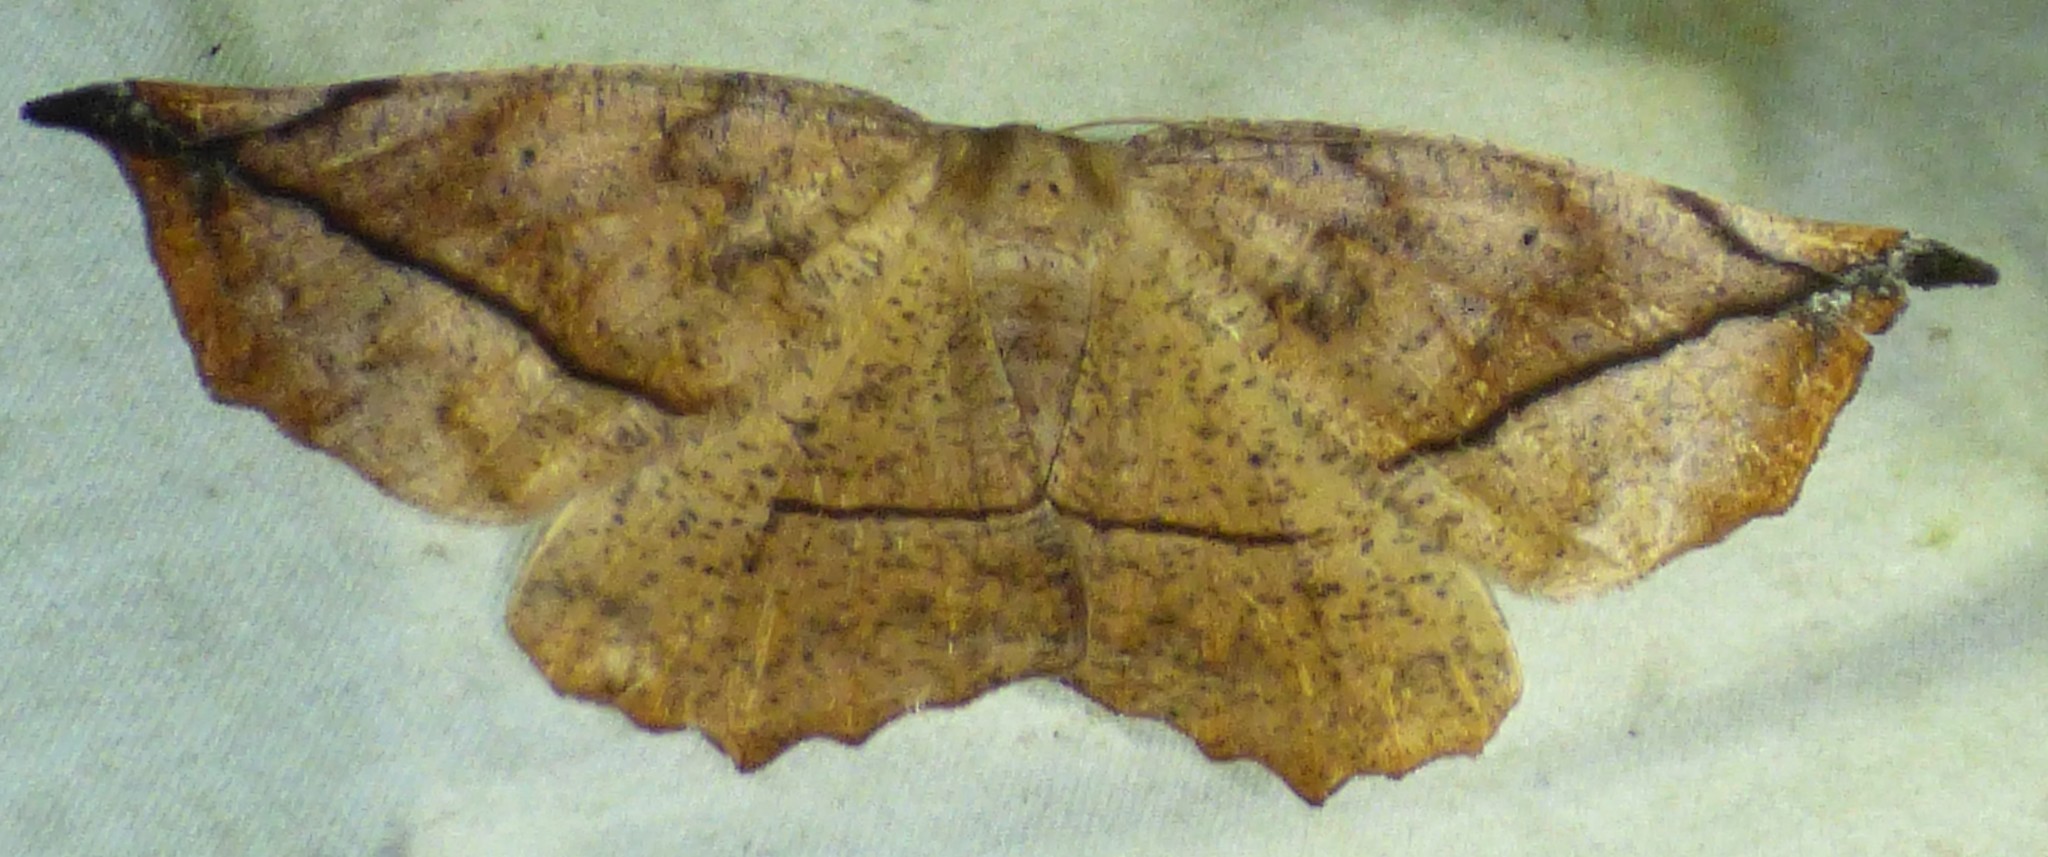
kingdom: Animalia
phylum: Arthropoda
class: Insecta
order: Lepidoptera
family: Geometridae
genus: Eutrapela
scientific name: Eutrapela clemataria
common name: Curved-toothed geometer
